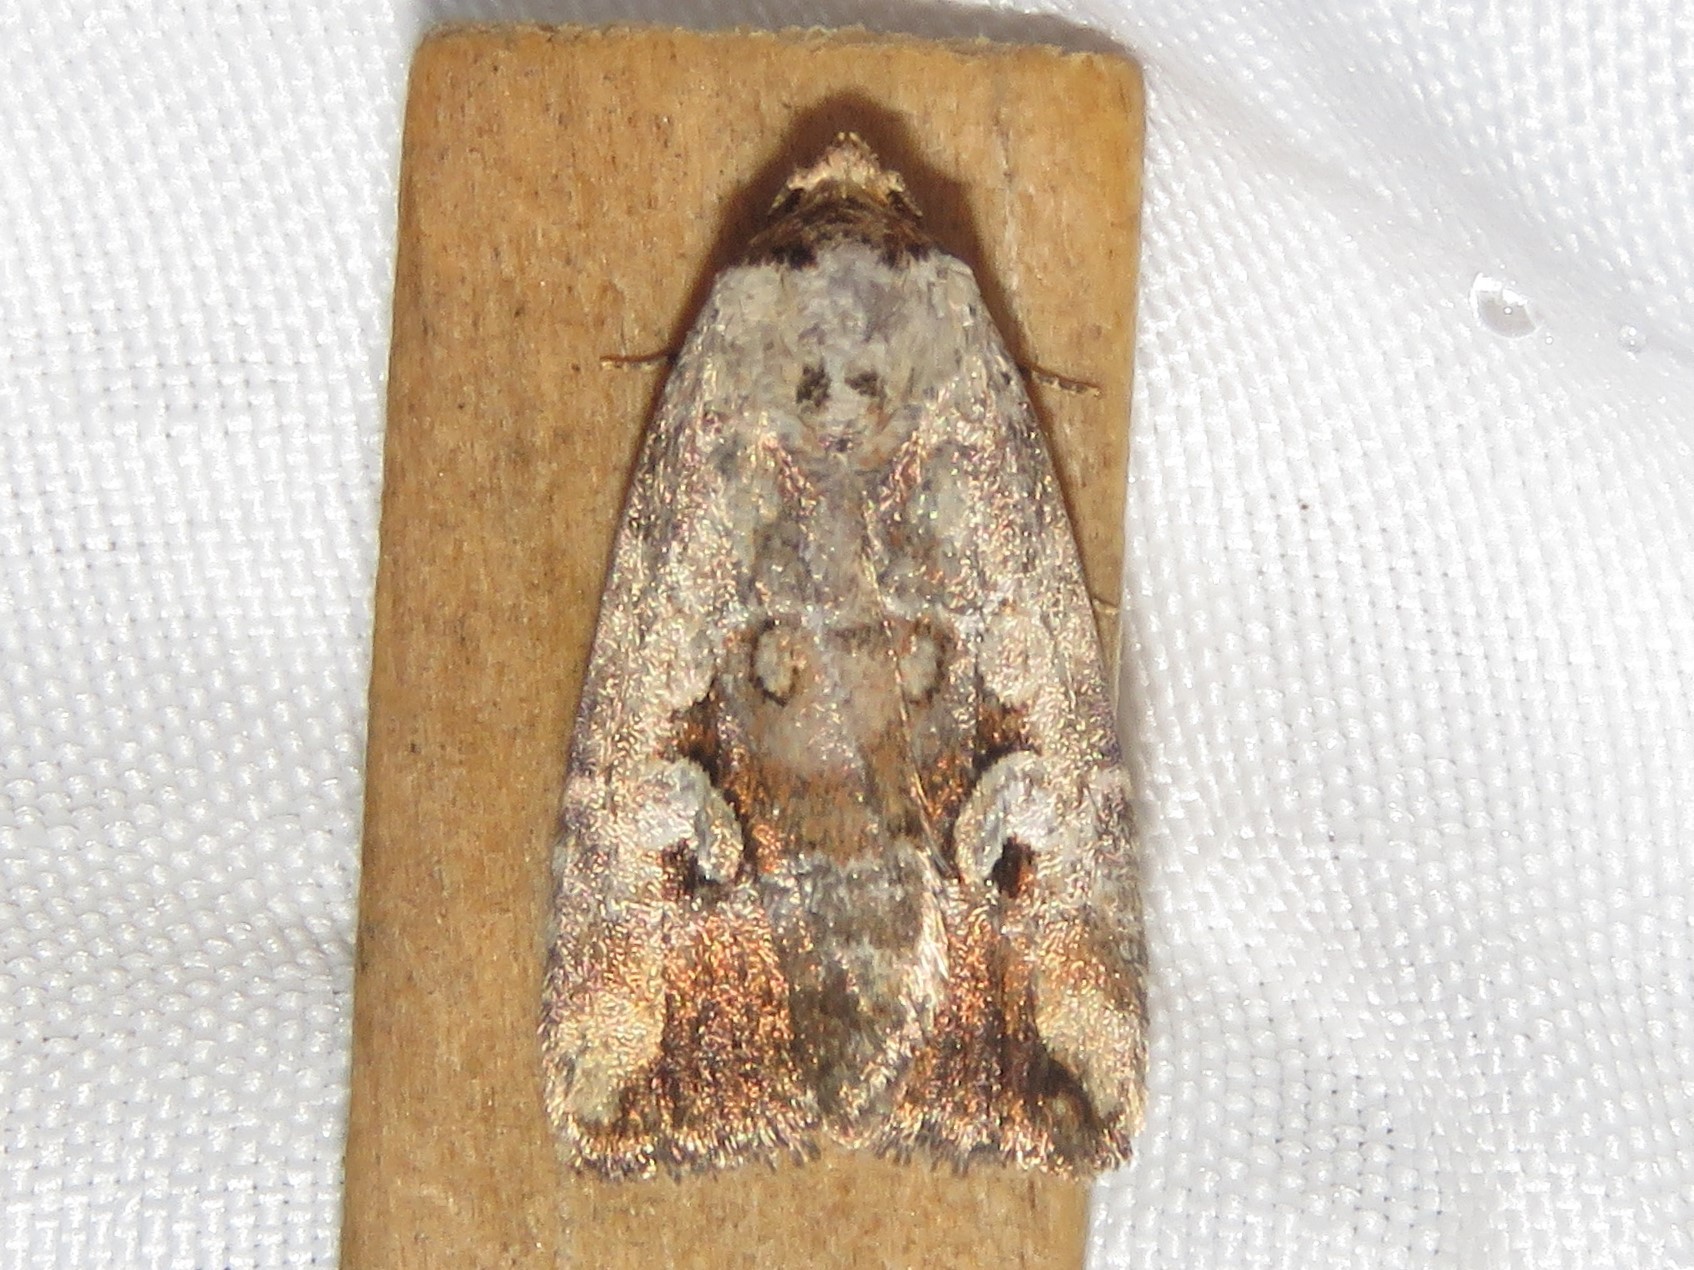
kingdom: Animalia
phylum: Arthropoda
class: Insecta
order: Lepidoptera
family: Noctuidae
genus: Elaphria
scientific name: Elaphria alapallida
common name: Pale-winged midget
